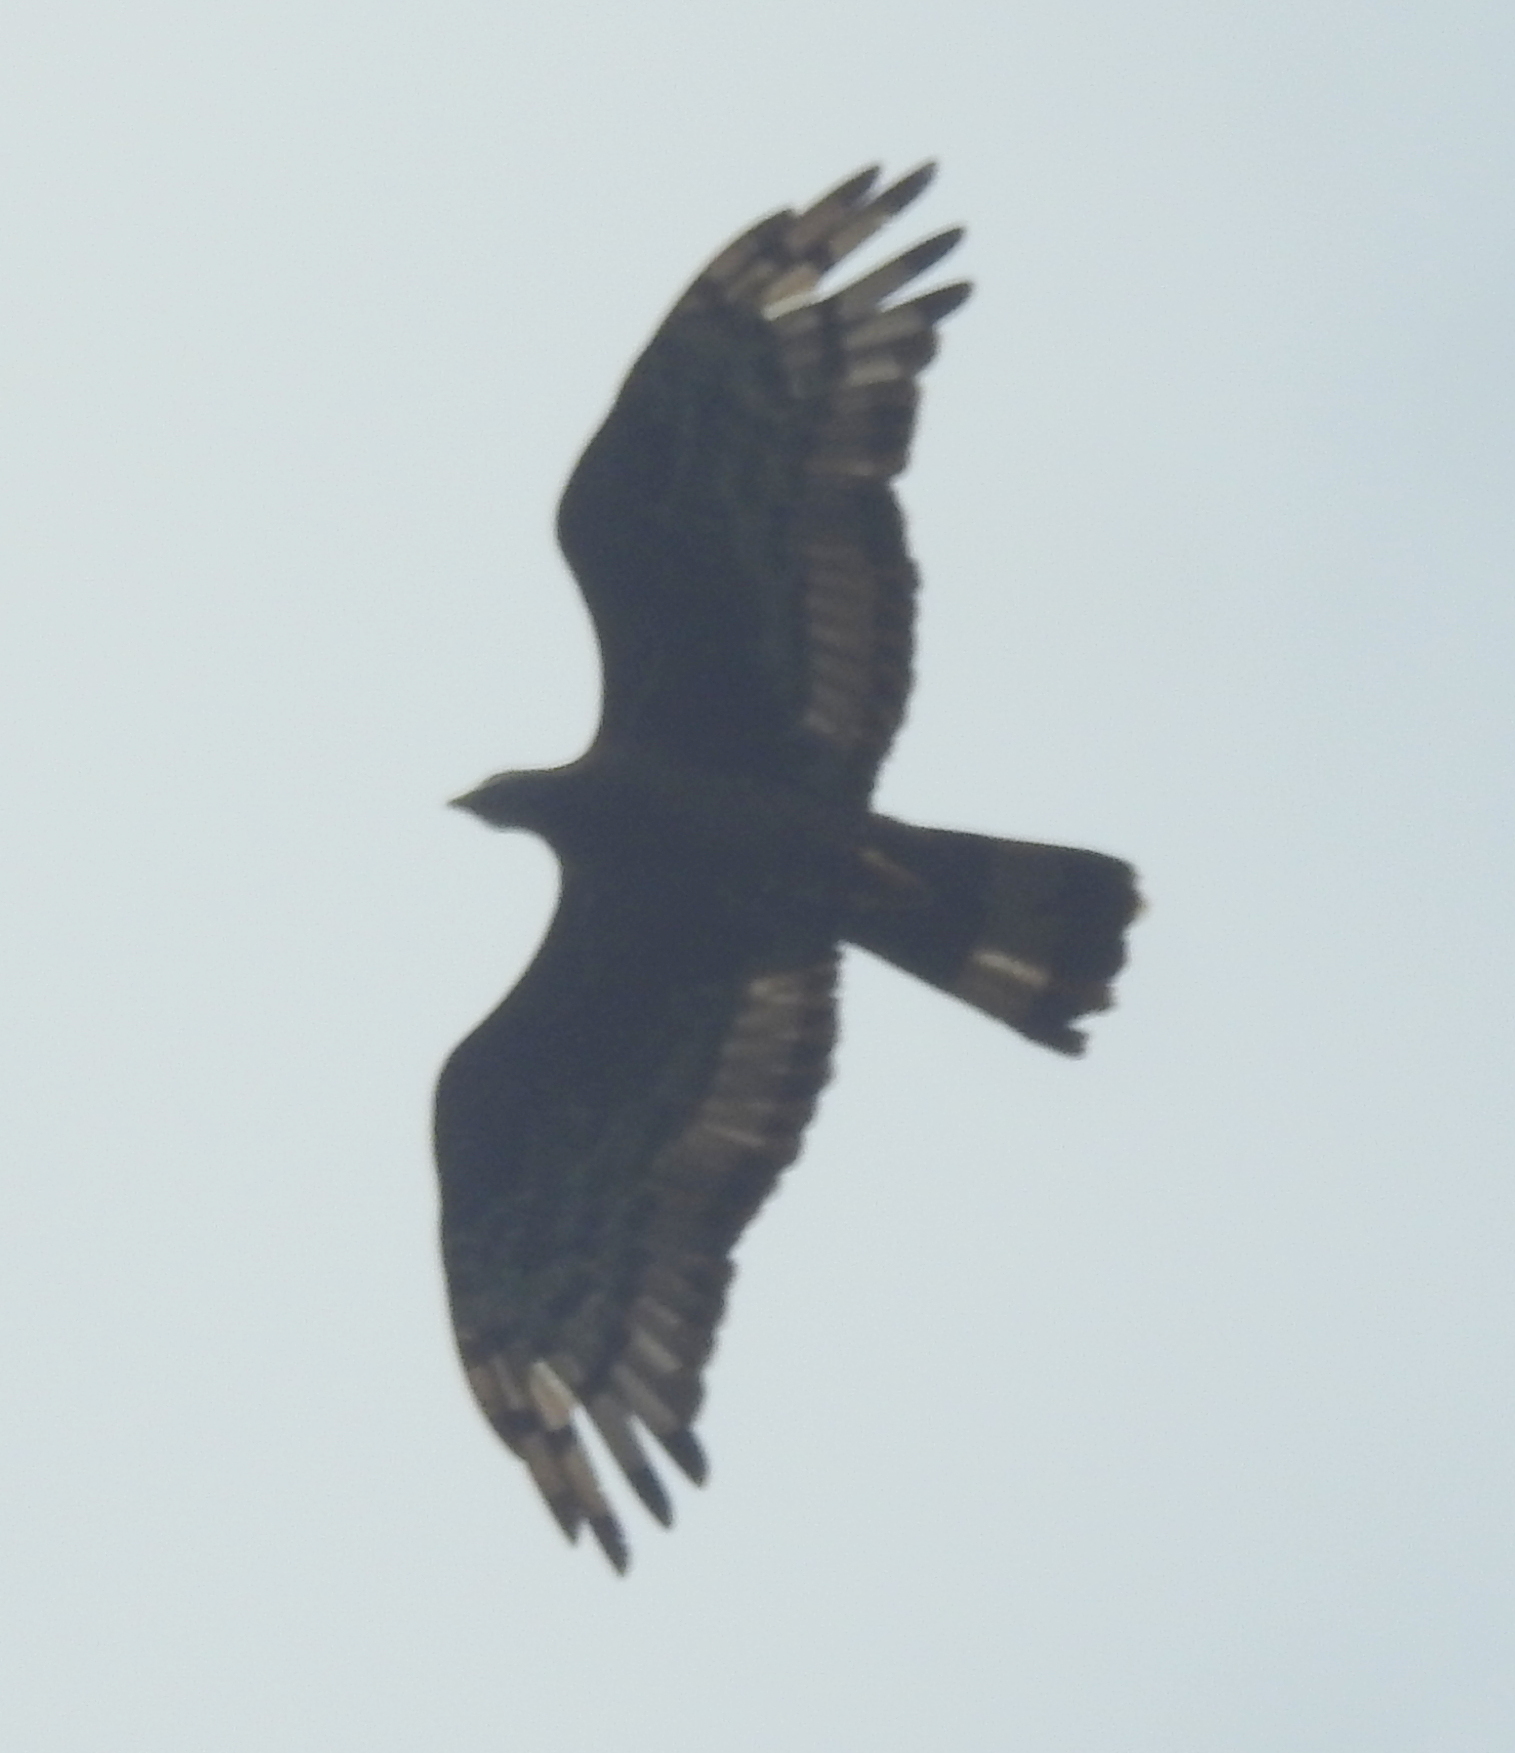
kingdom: Animalia
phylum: Chordata
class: Aves
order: Accipitriformes
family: Accipitridae
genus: Pernis
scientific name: Pernis ptilorhynchus
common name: Crested honey buzzard
